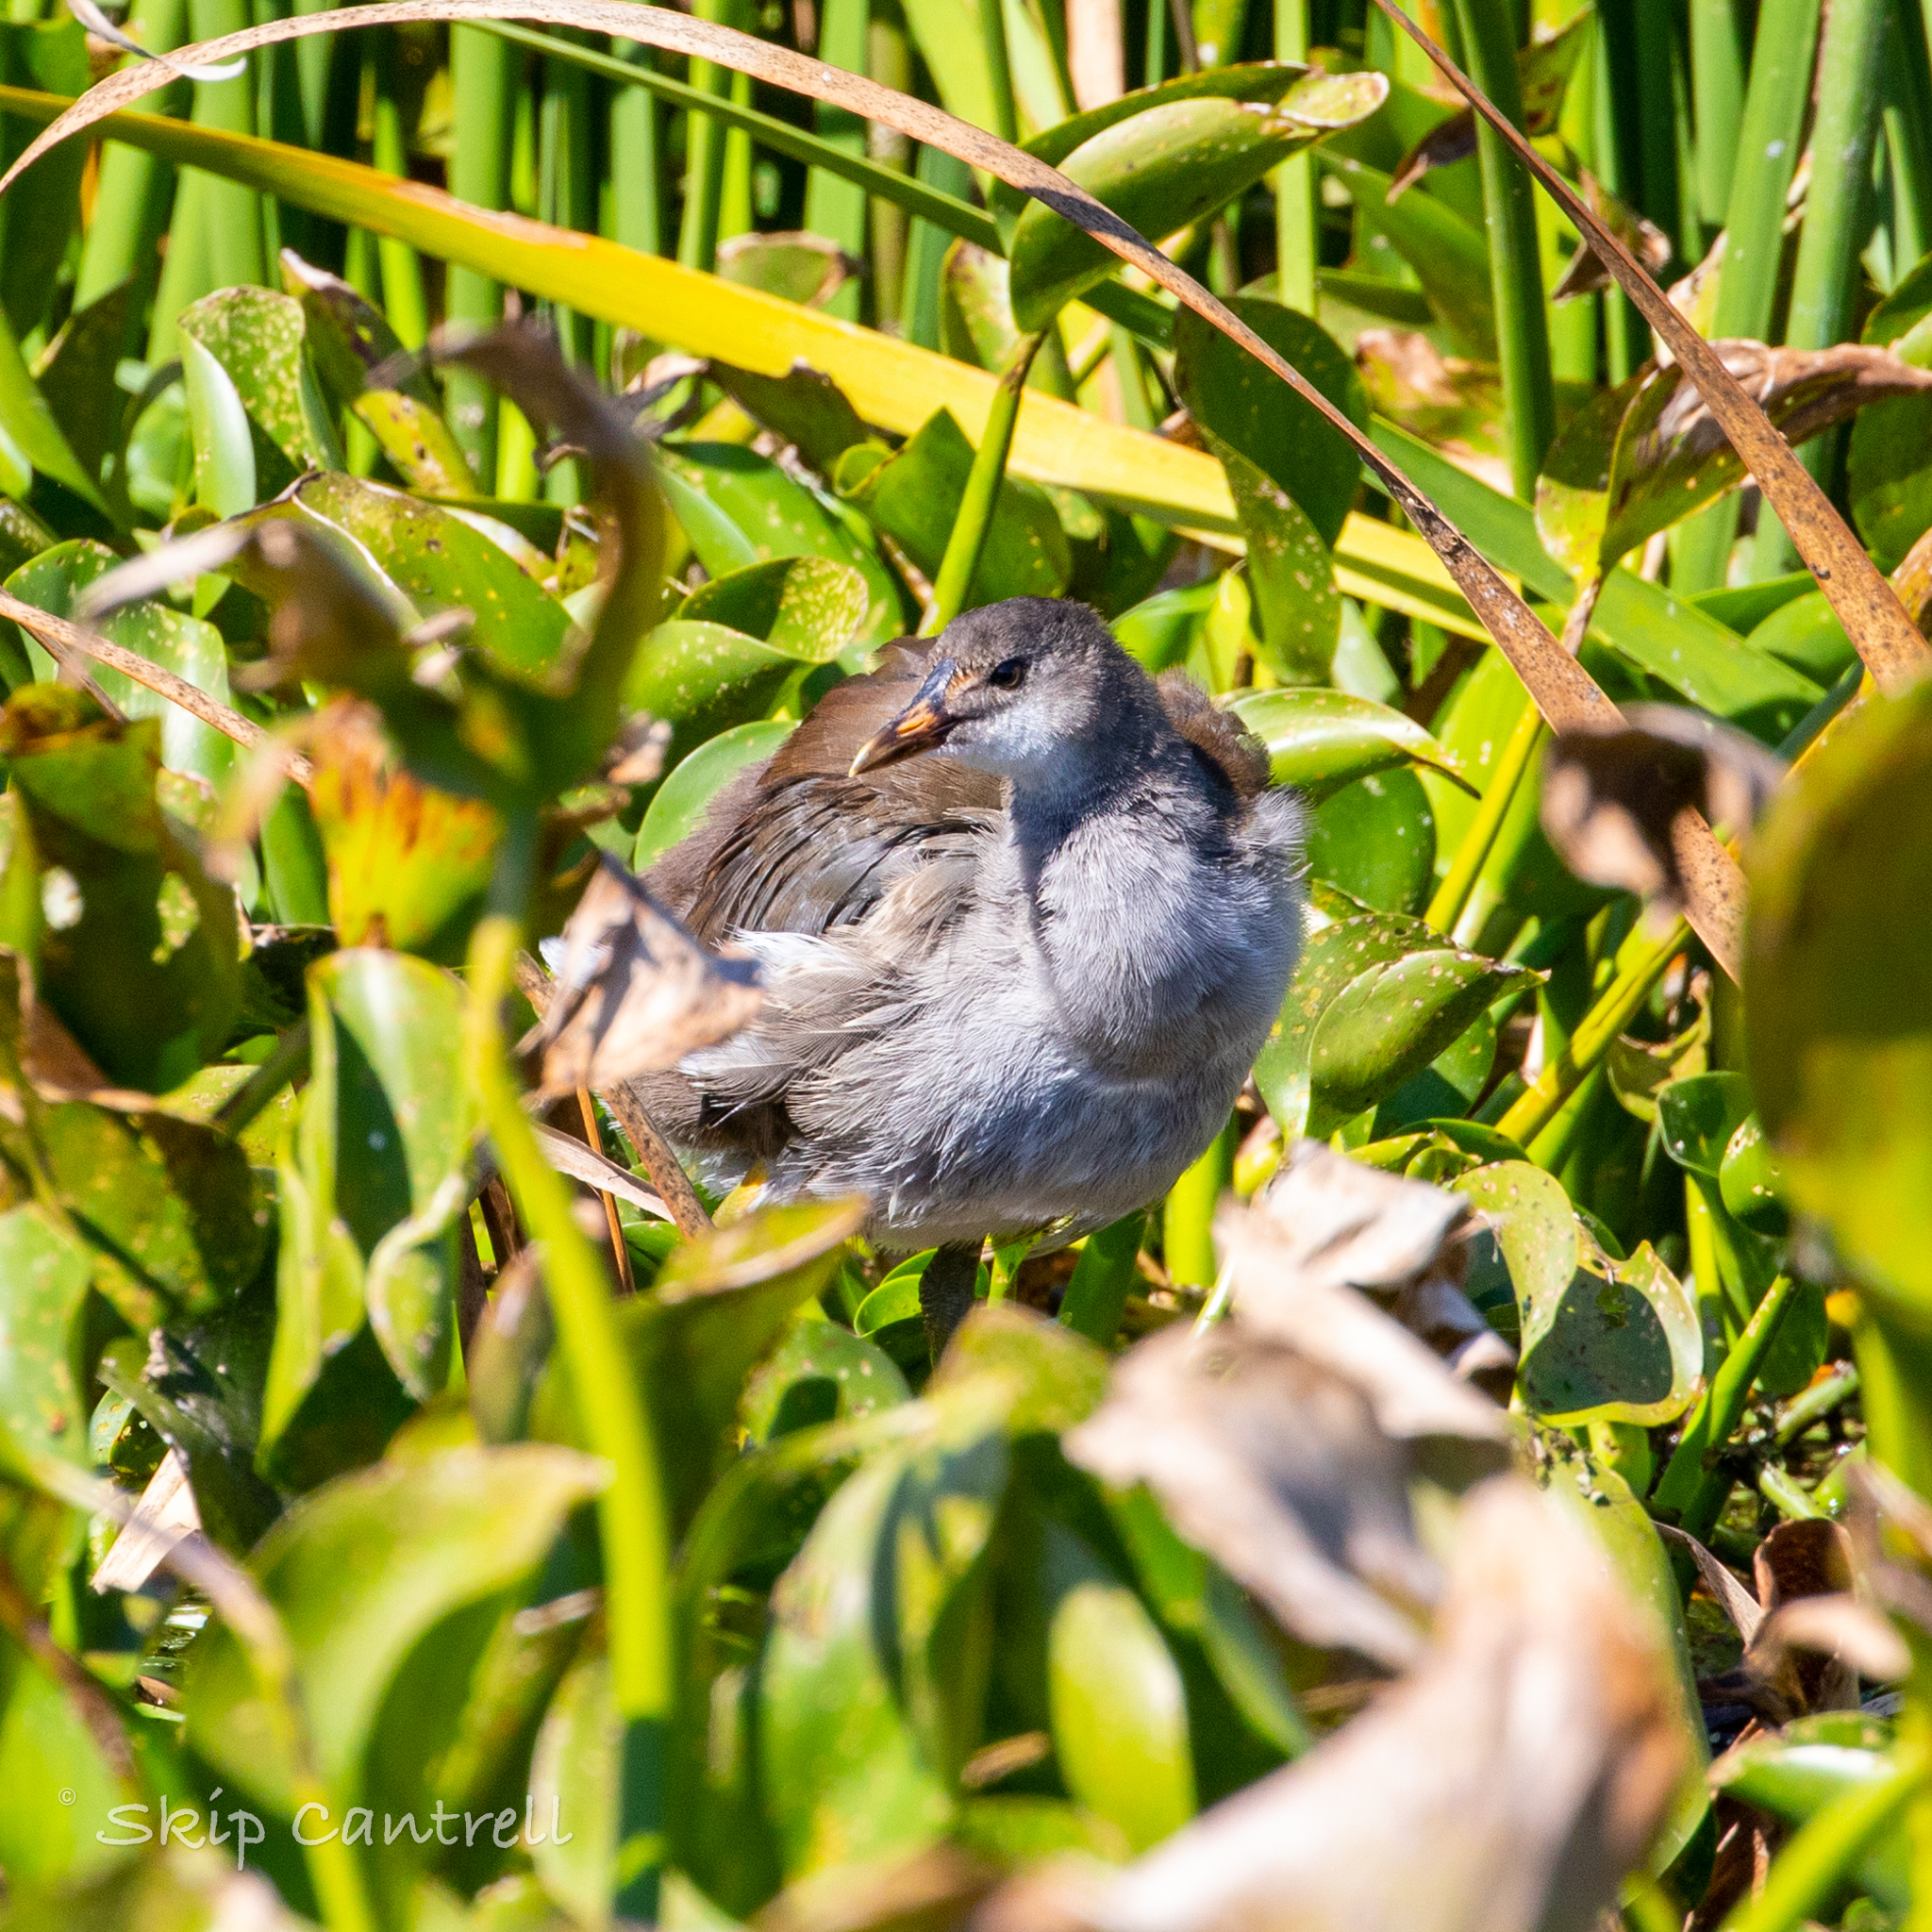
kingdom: Animalia
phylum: Chordata
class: Aves
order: Gruiformes
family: Rallidae
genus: Gallinula
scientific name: Gallinula chloropus
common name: Common moorhen
